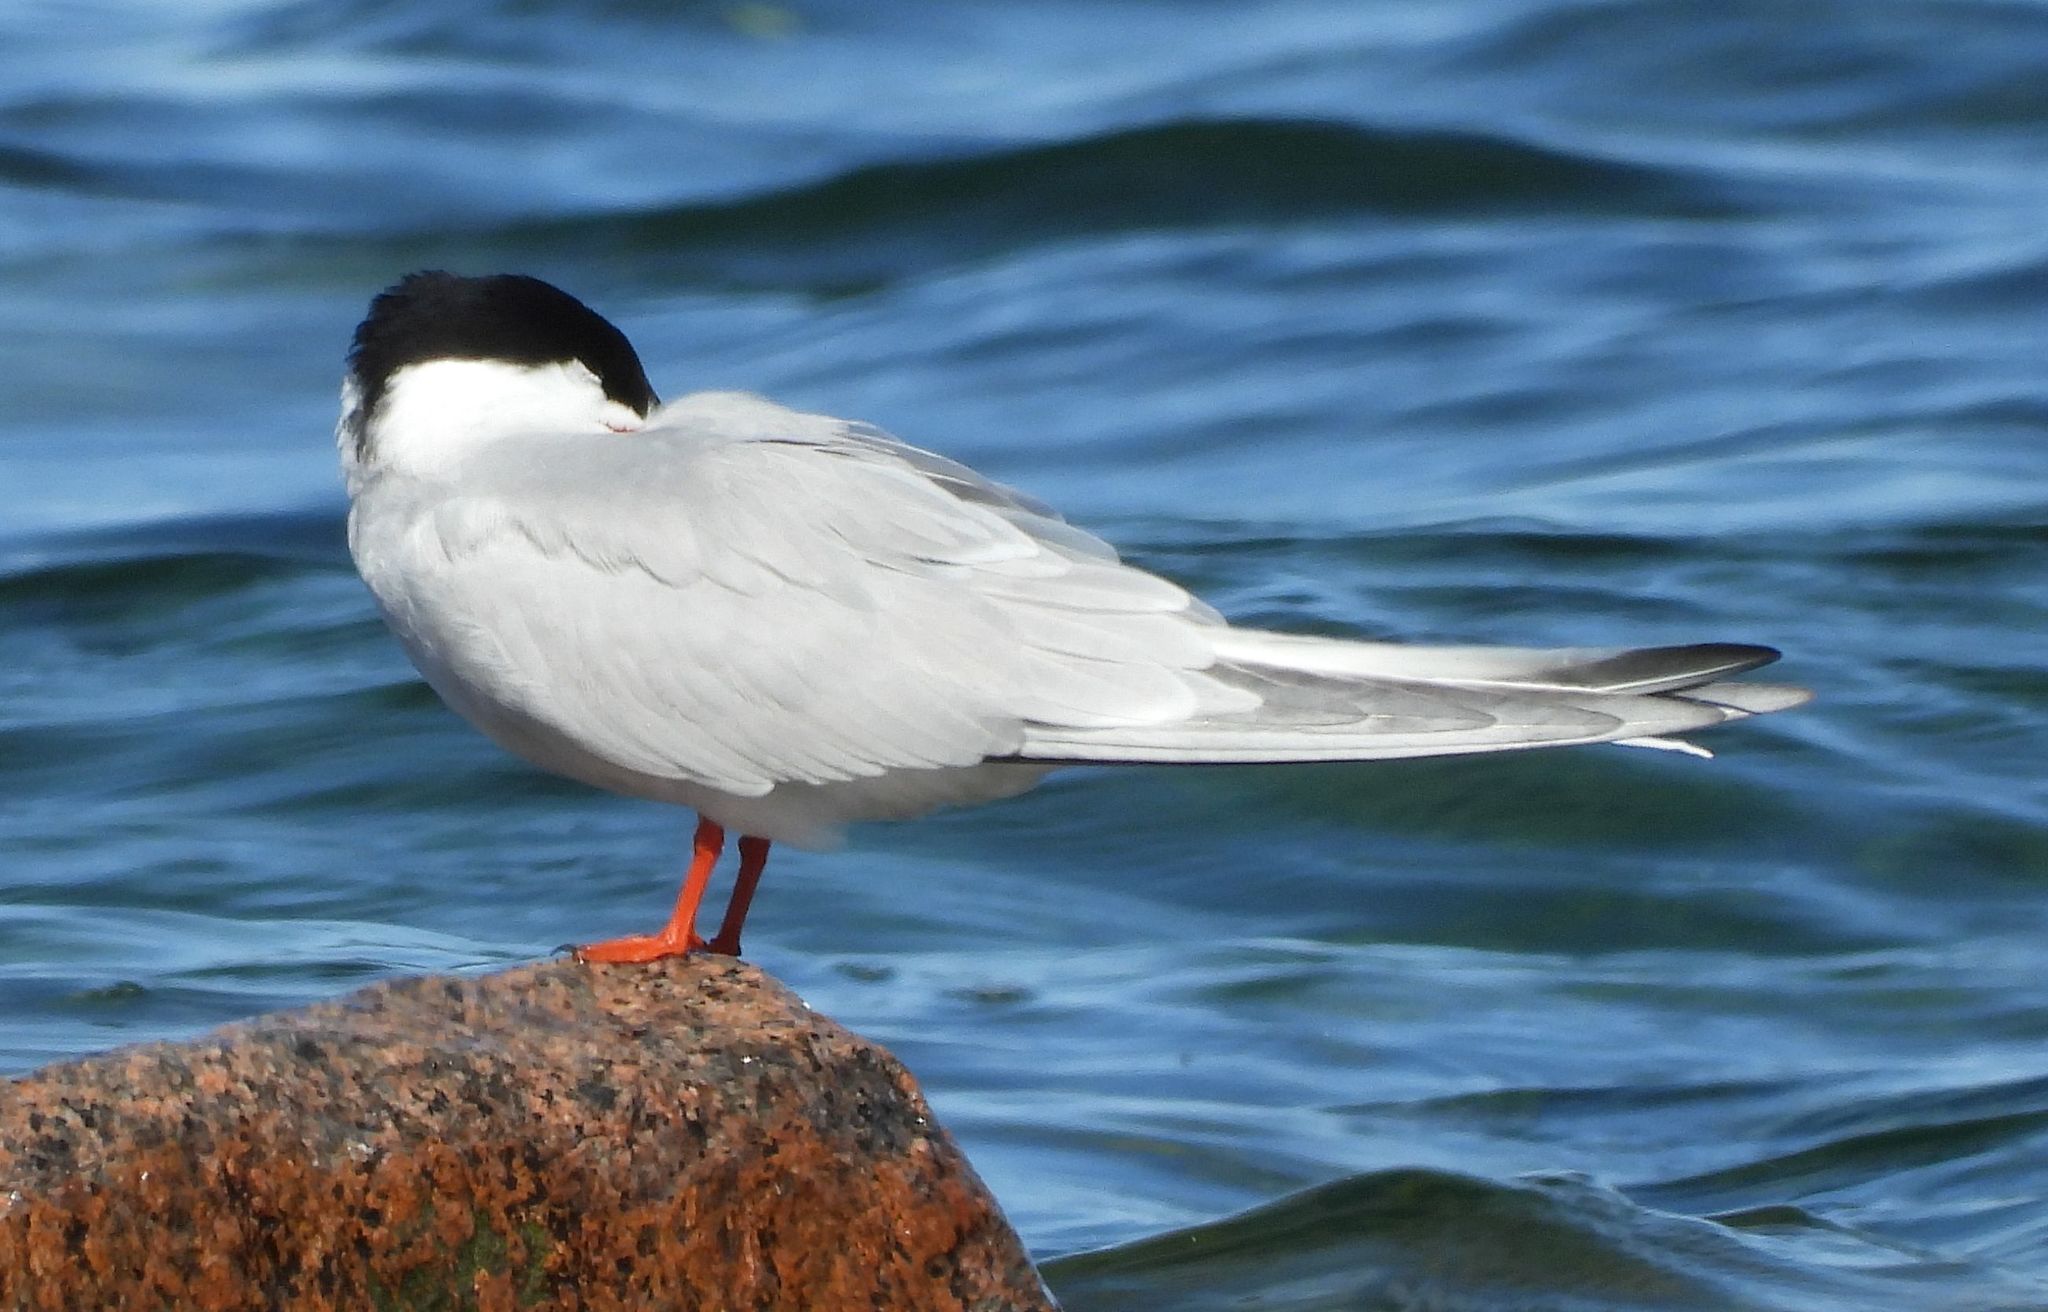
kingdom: Animalia
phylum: Chordata
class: Aves
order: Charadriiformes
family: Laridae
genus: Sterna
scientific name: Sterna hirundo
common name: Common tern
